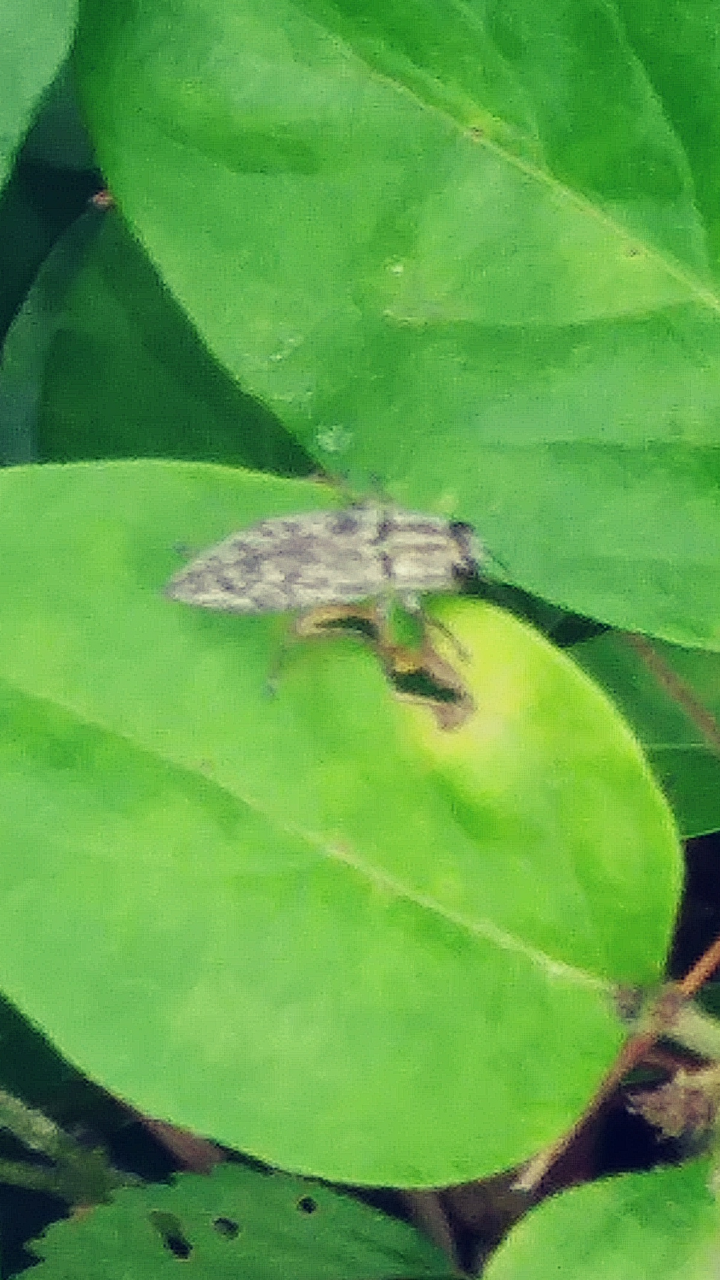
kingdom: Animalia
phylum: Arthropoda
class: Insecta
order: Coleoptera
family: Buprestidae
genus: Spectralia
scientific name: Spectralia gracilipes
